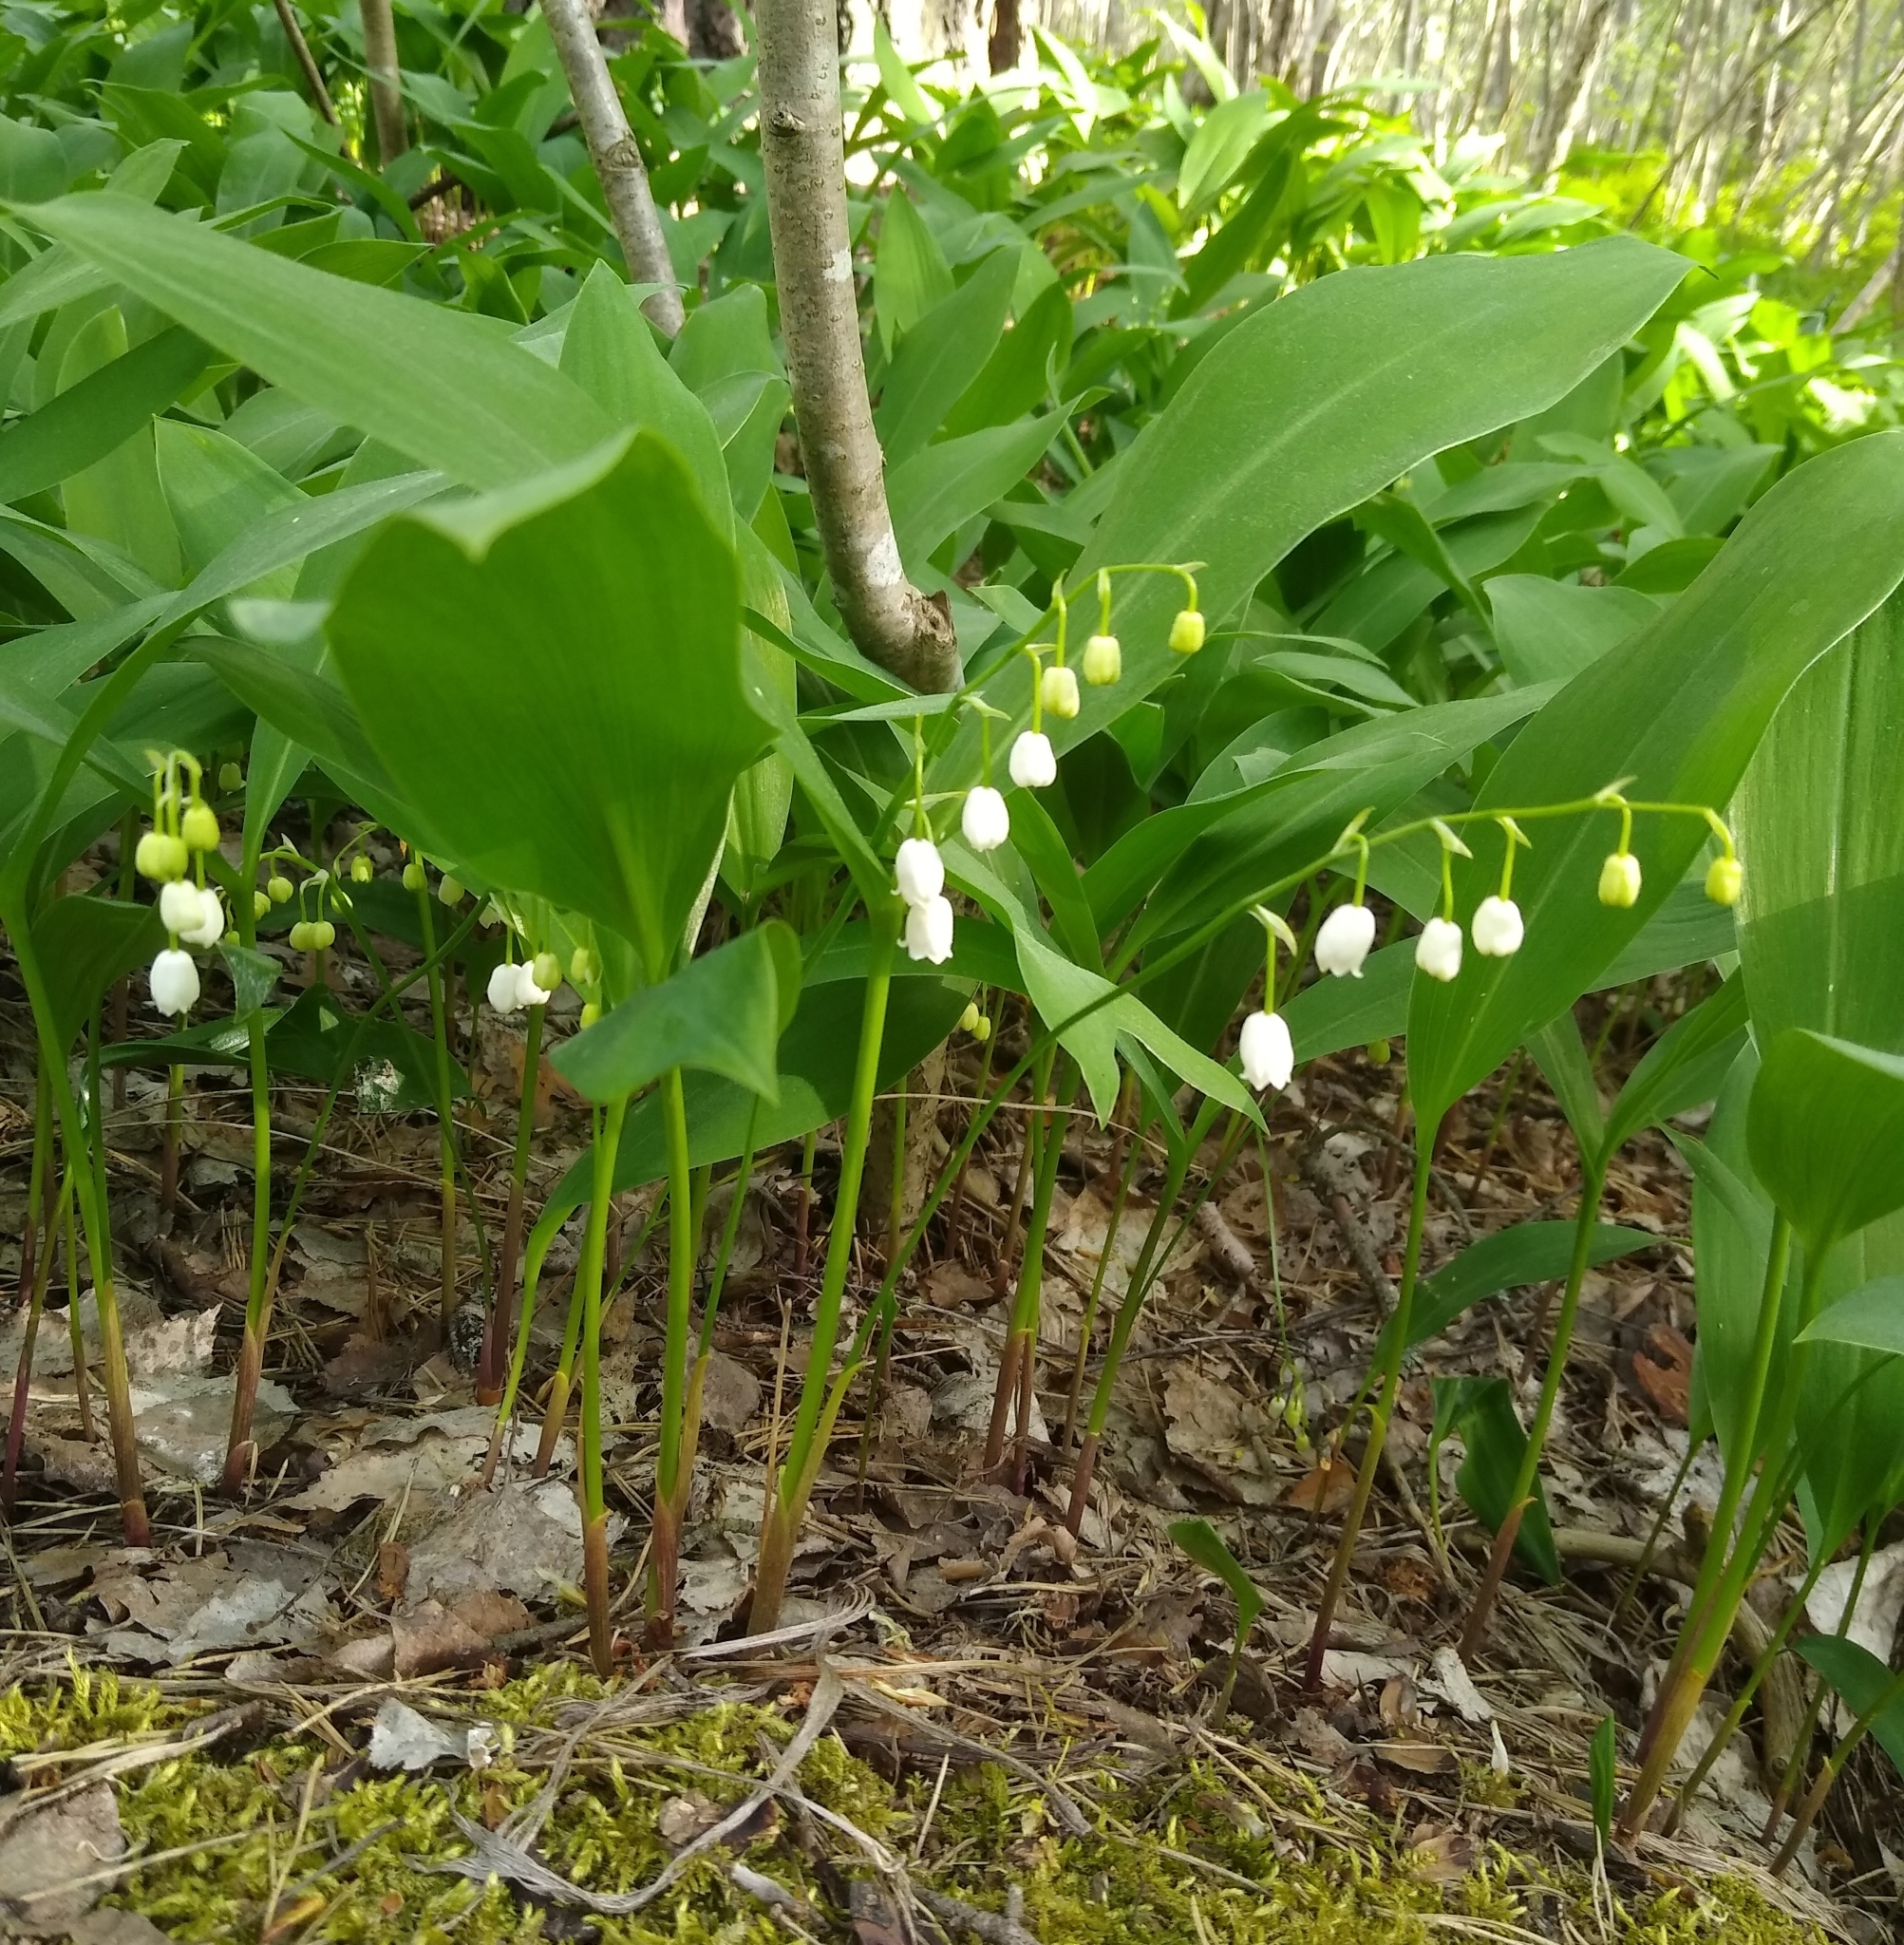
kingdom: Plantae
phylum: Tracheophyta
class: Liliopsida
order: Asparagales
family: Asparagaceae
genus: Convallaria
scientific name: Convallaria majalis
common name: Lily-of-the-valley
